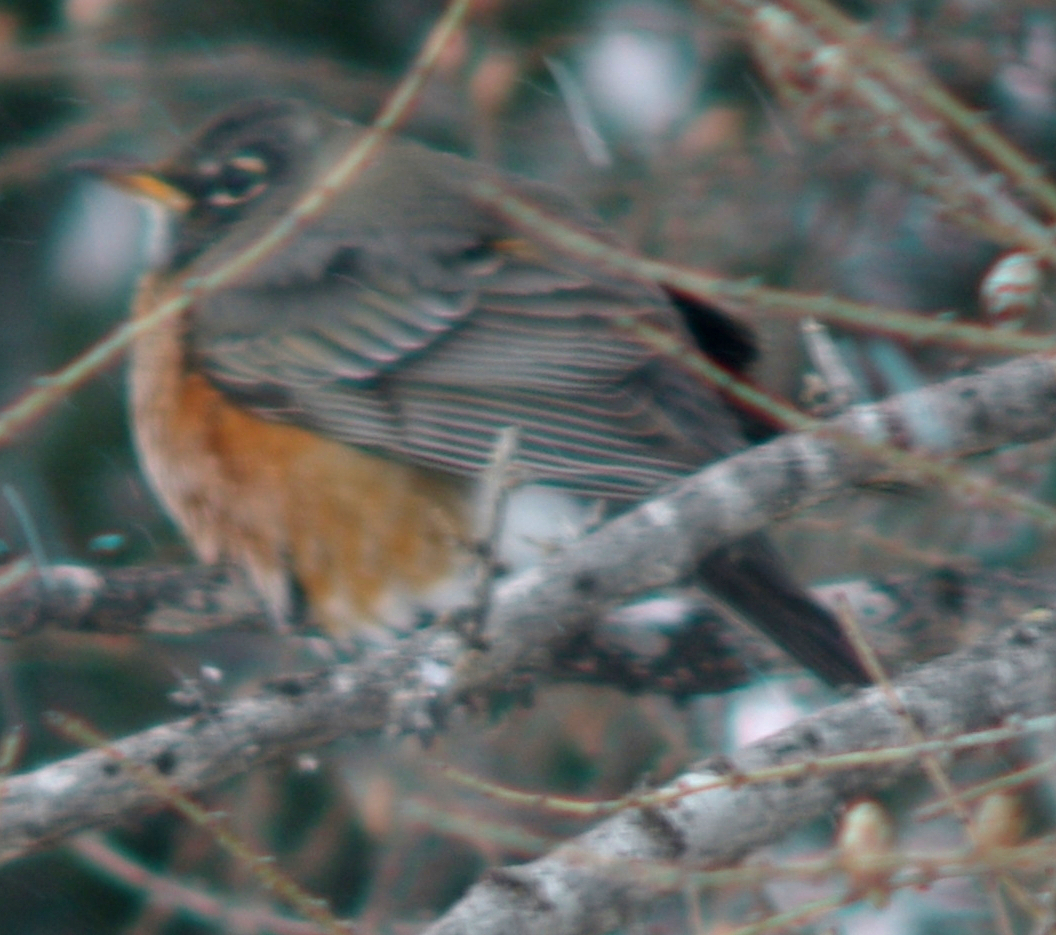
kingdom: Animalia
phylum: Chordata
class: Aves
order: Passeriformes
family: Turdidae
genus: Turdus
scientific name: Turdus migratorius
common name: American robin
